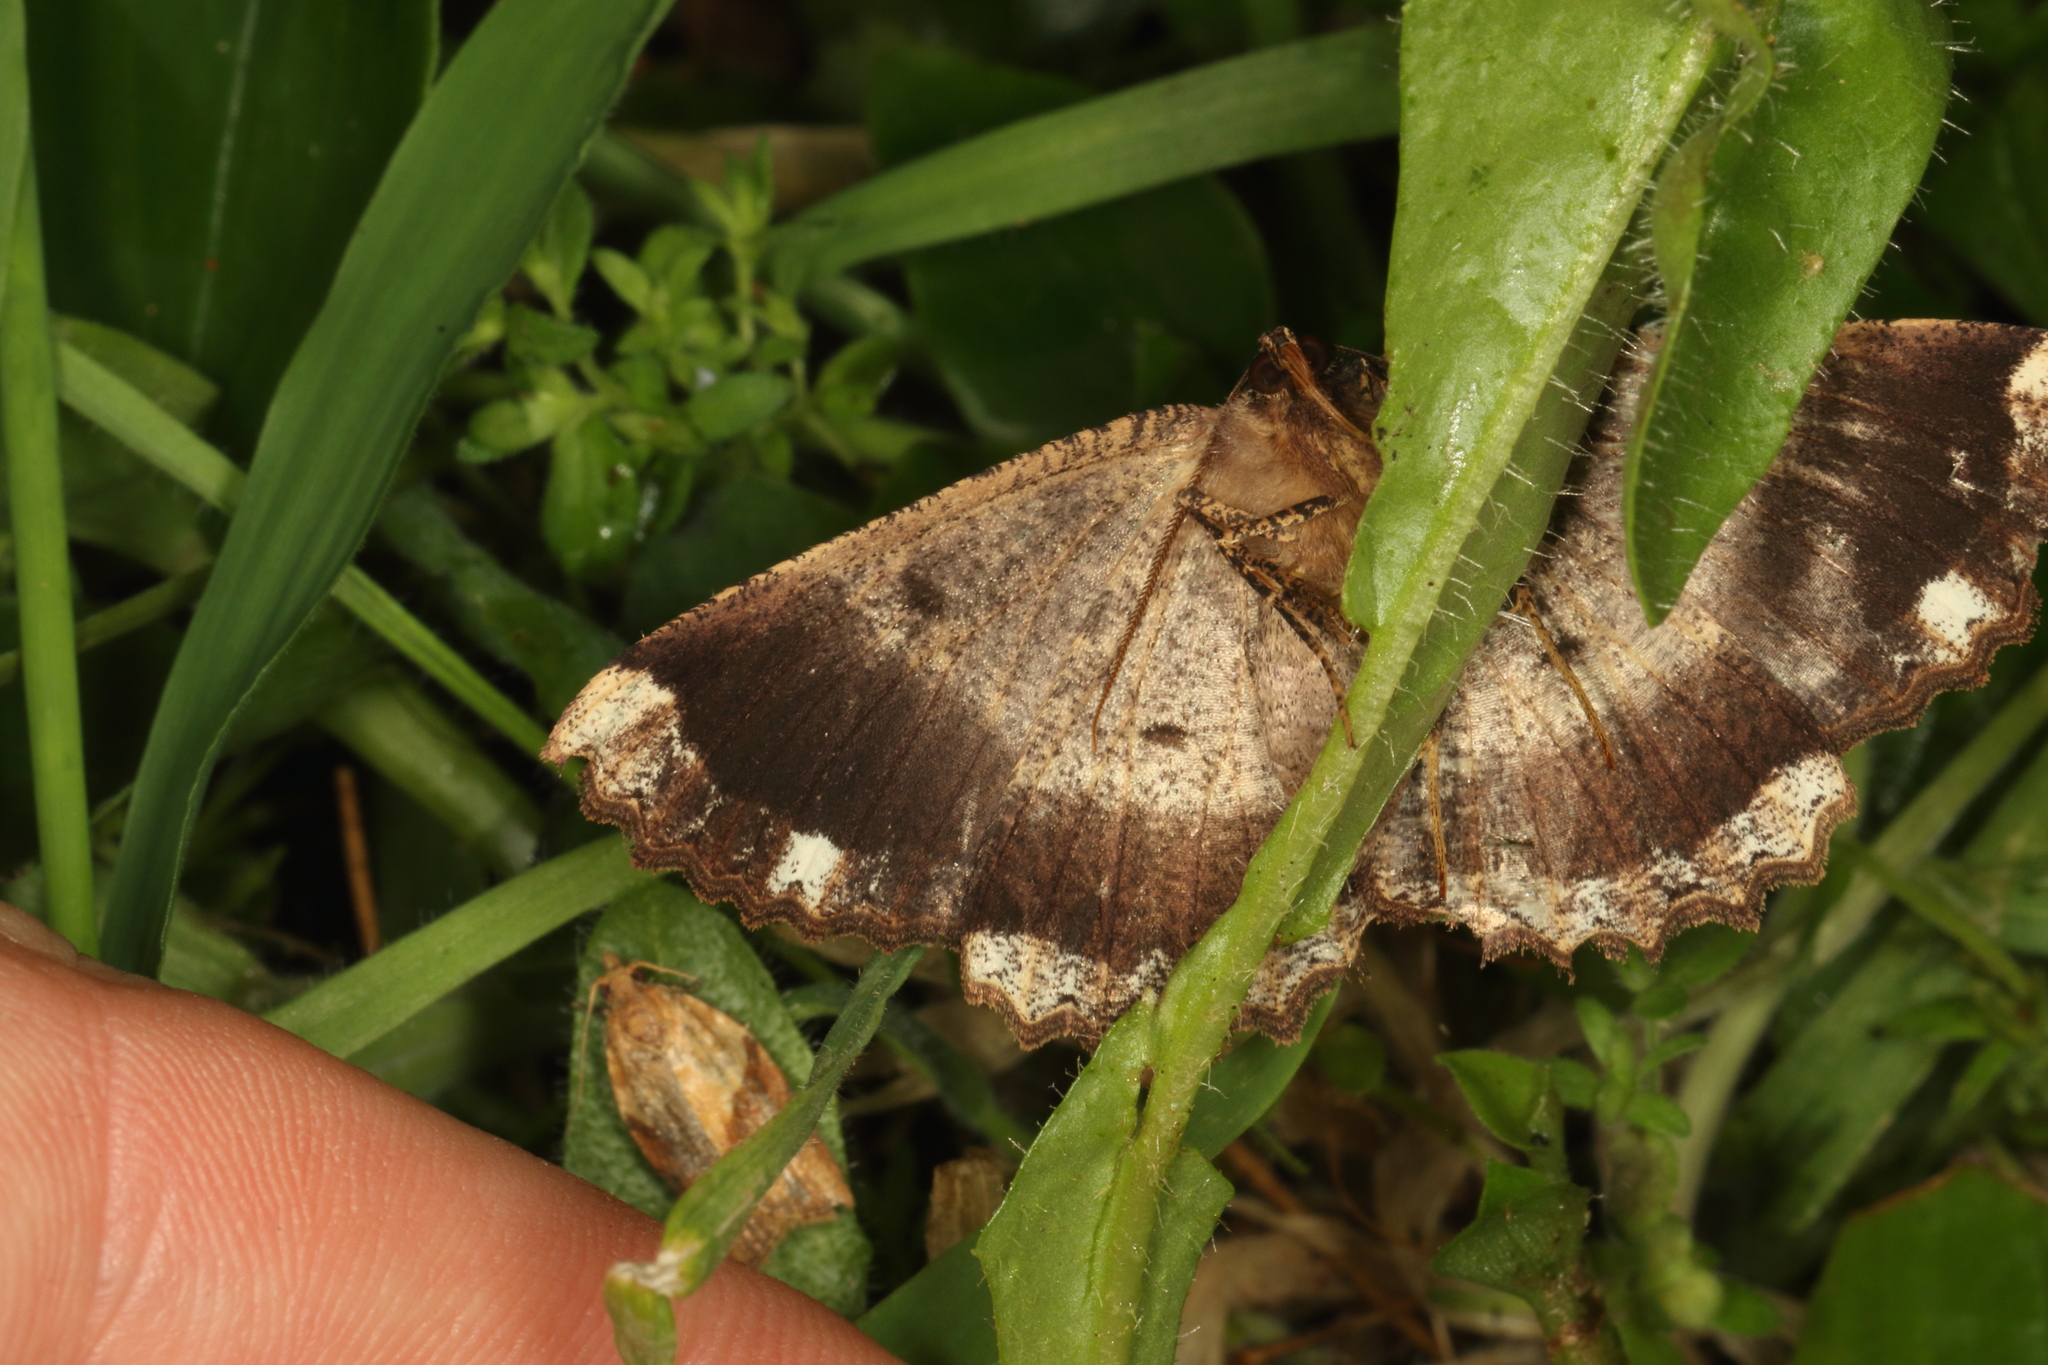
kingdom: Animalia
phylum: Arthropoda
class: Insecta
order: Lepidoptera
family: Geometridae
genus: Gellonia
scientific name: Gellonia dejectaria
